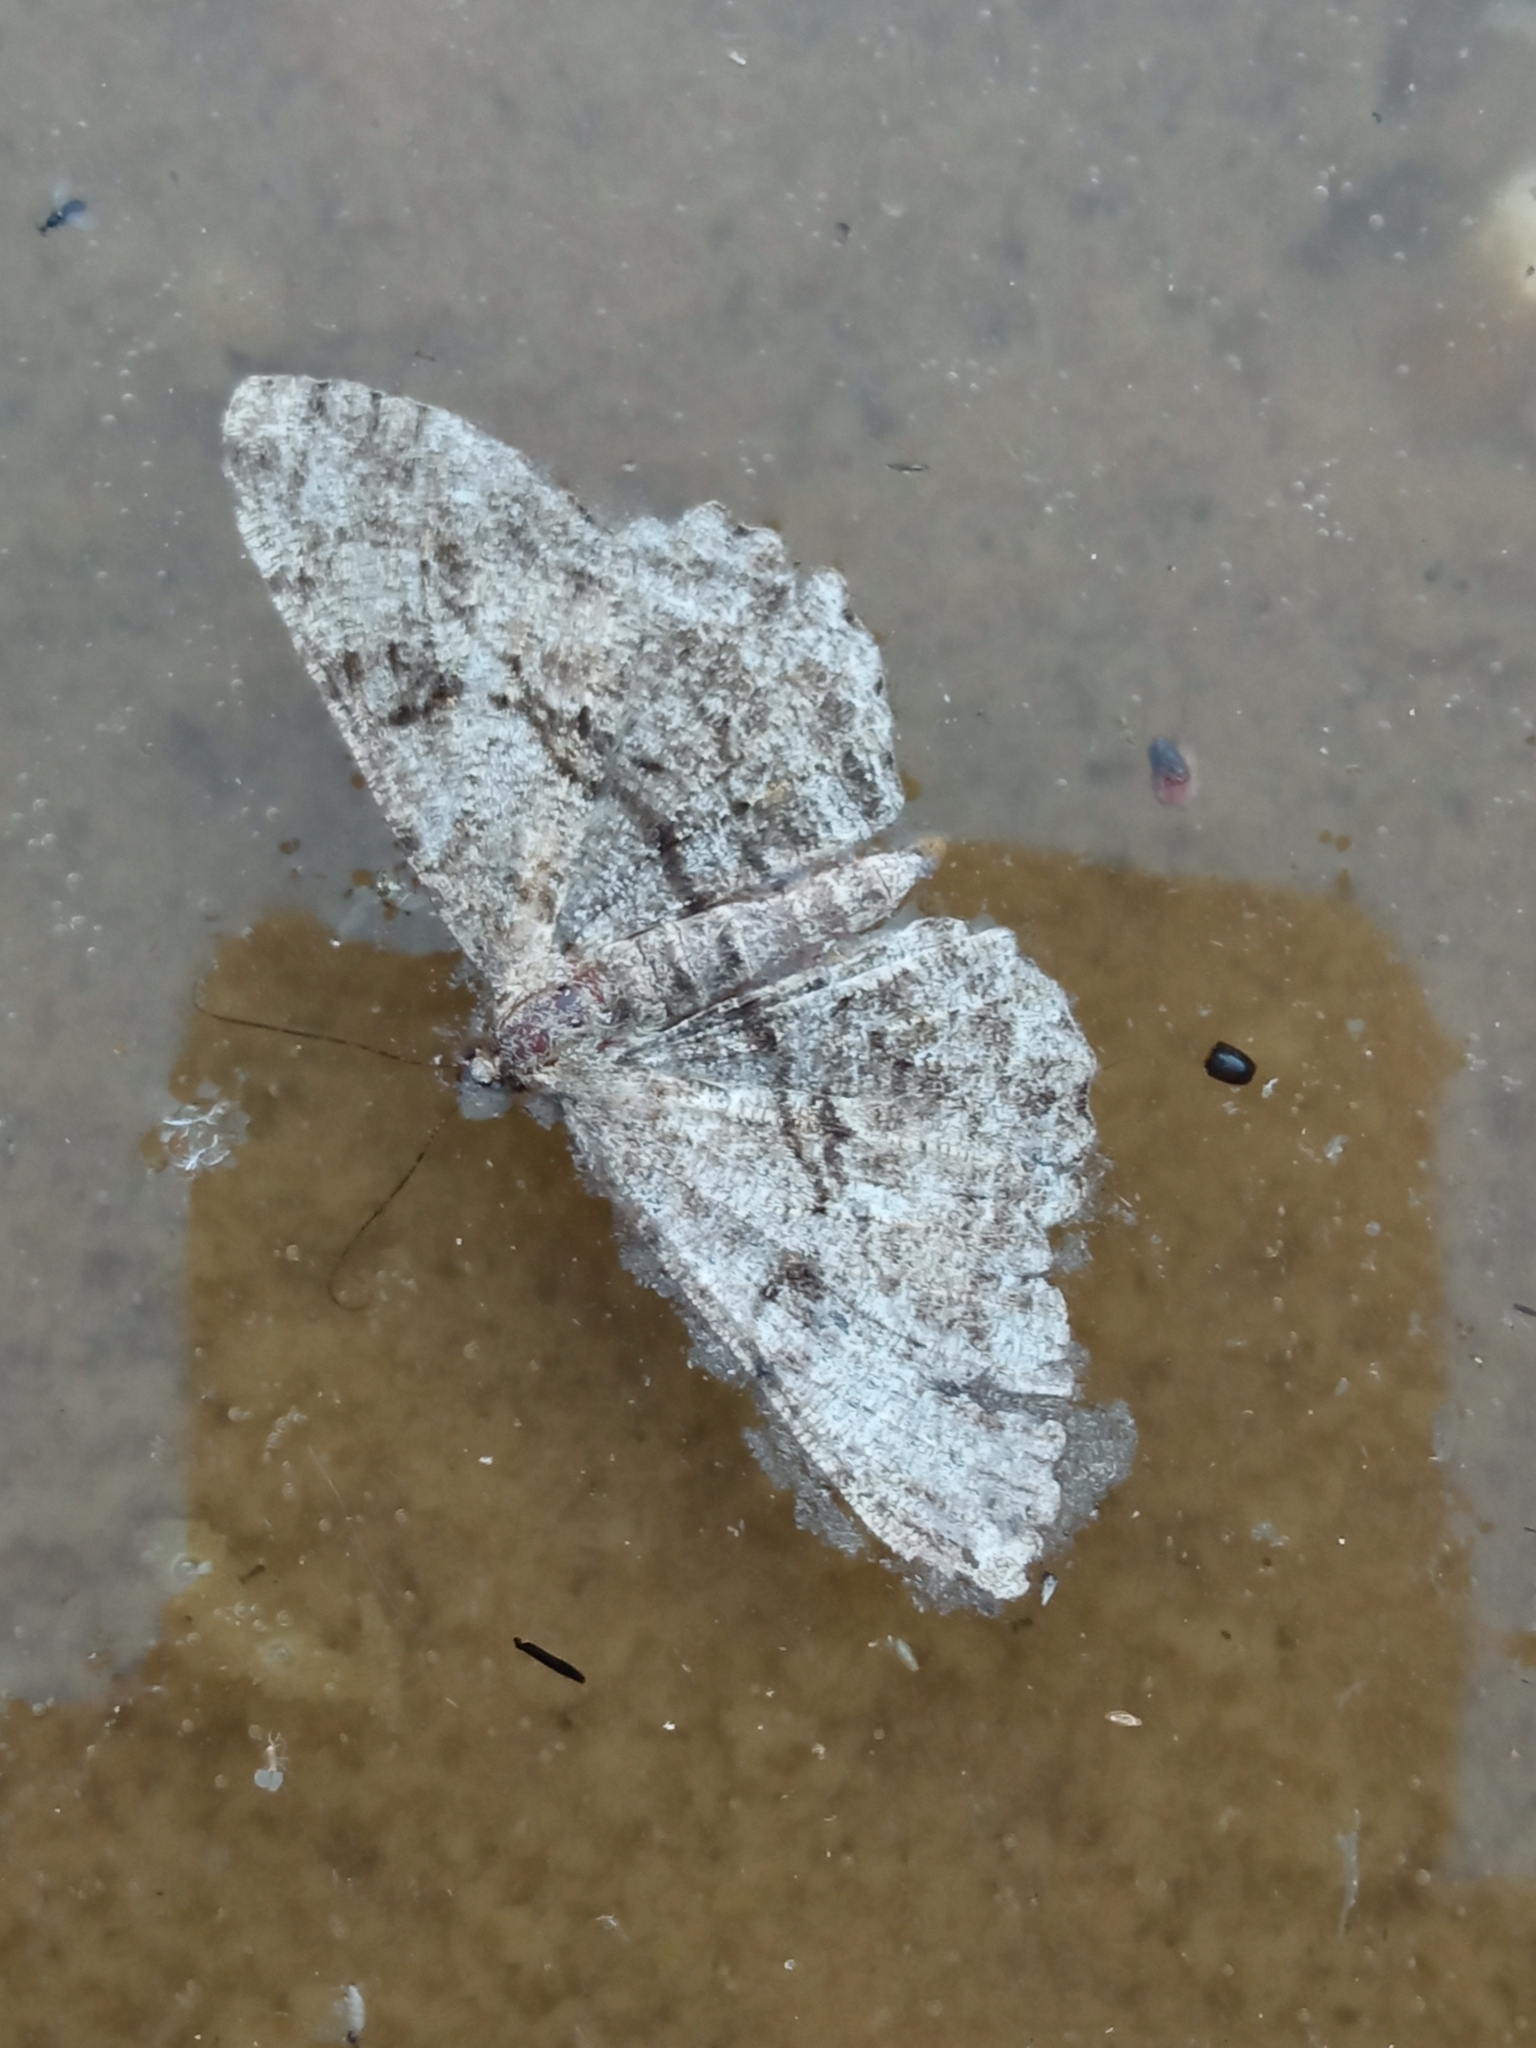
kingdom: Animalia
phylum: Arthropoda
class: Insecta
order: Lepidoptera
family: Geometridae
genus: Peribatodes
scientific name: Peribatodes rhomboidaria
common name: Willow beauty
